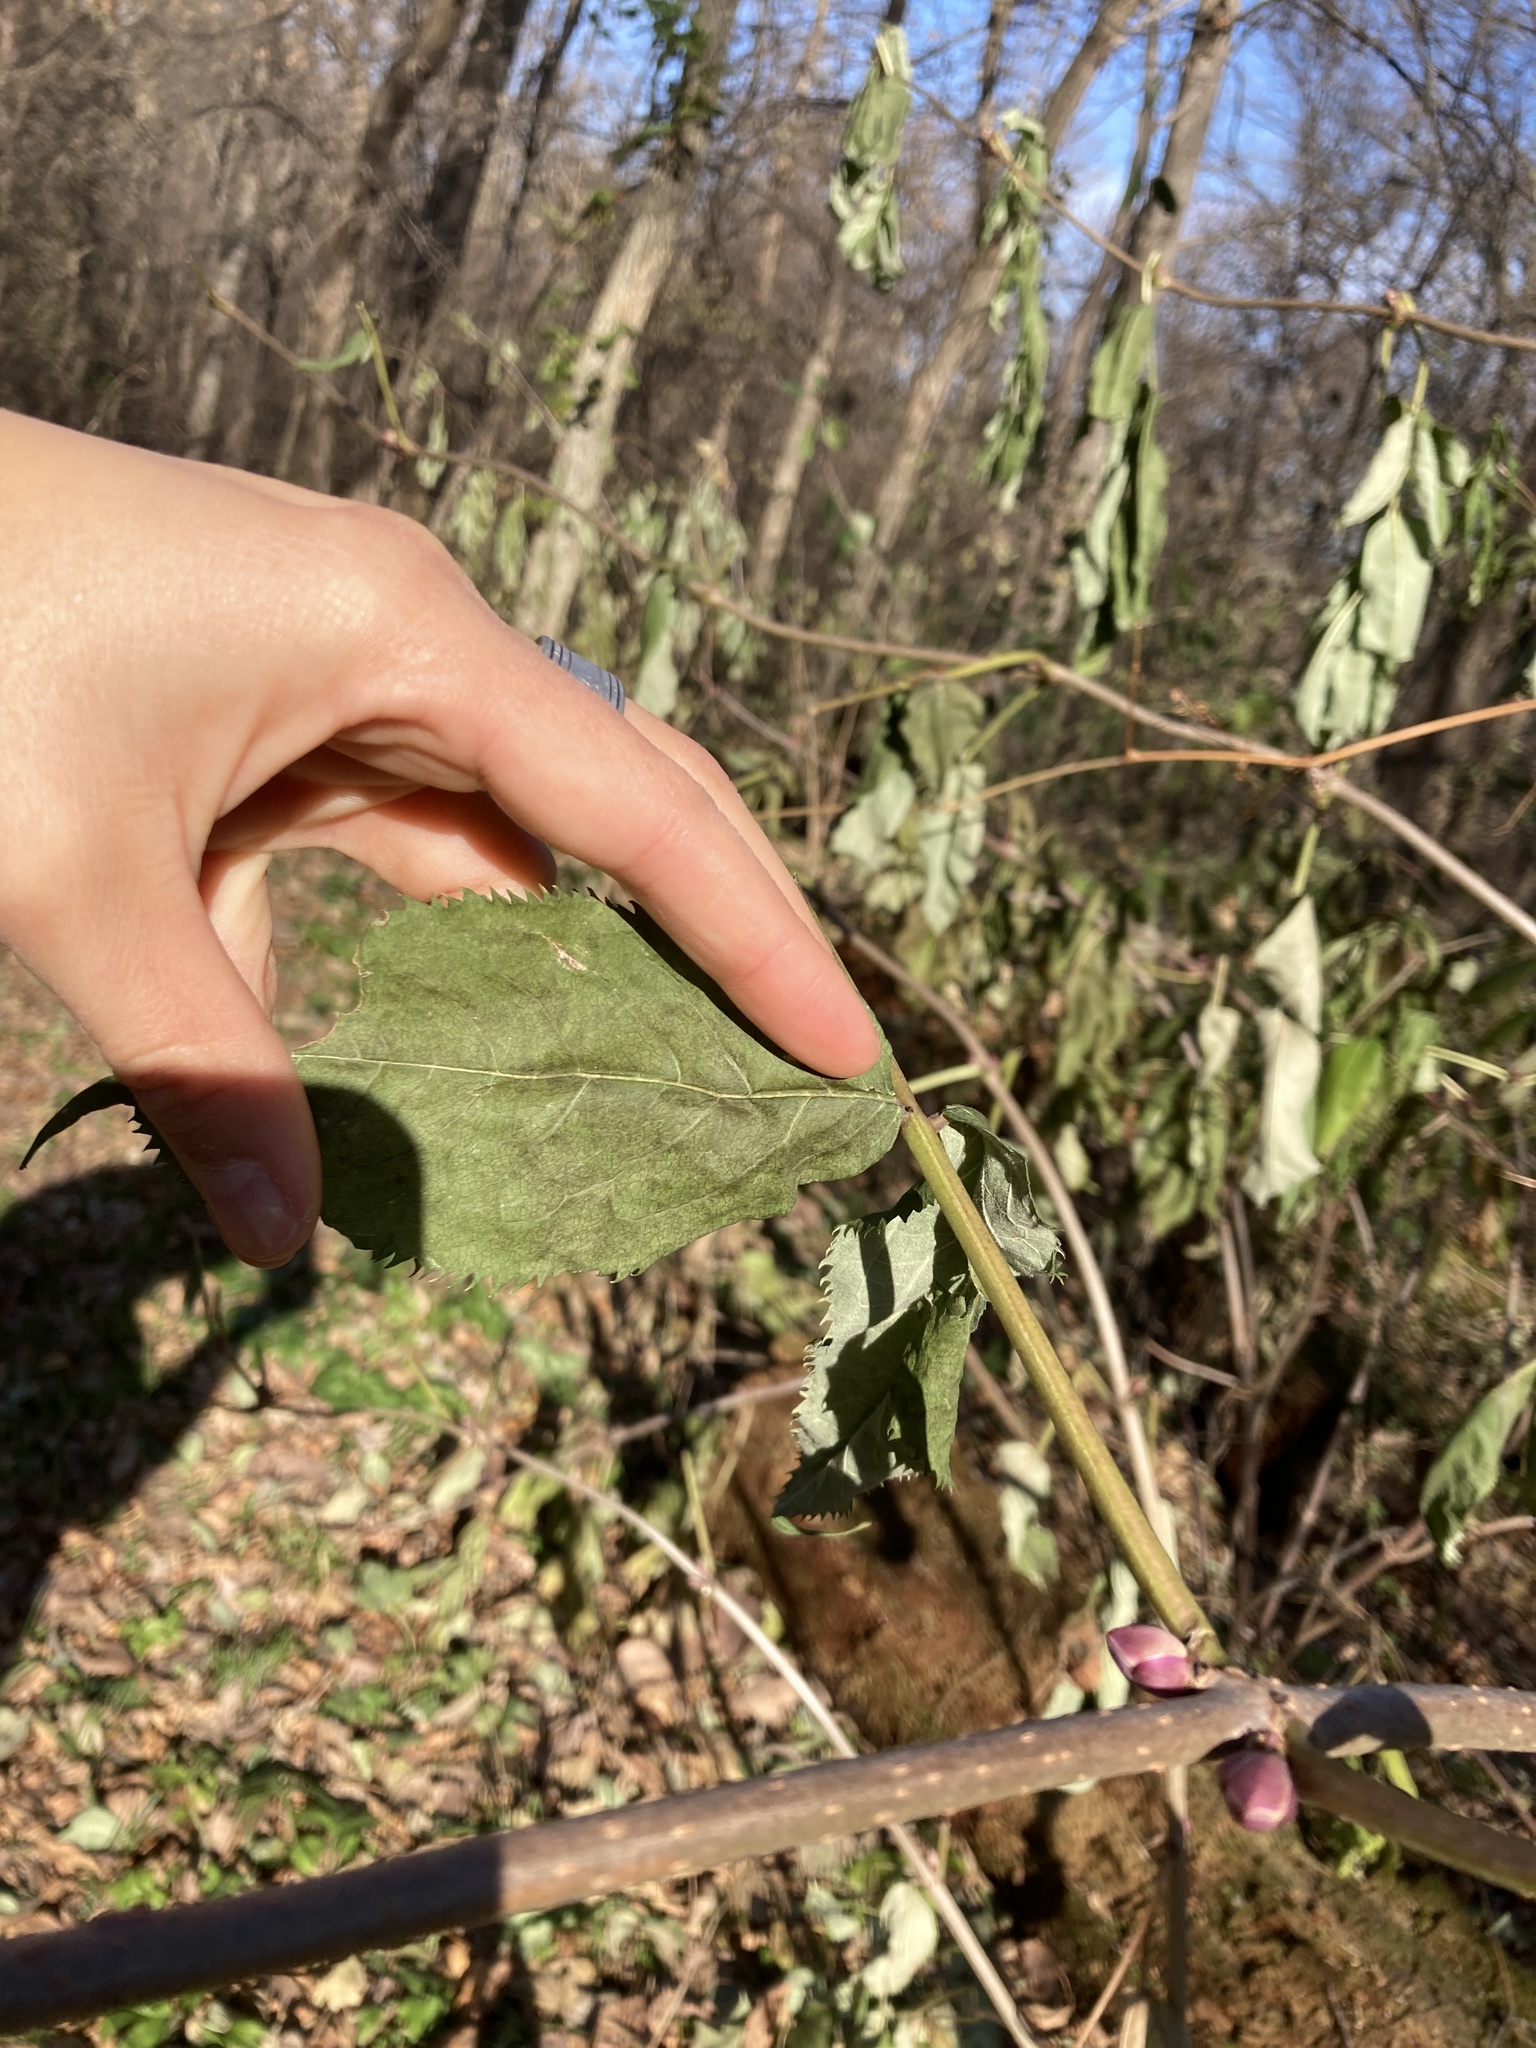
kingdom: Plantae
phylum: Tracheophyta
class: Magnoliopsida
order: Dipsacales
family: Viburnaceae
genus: Sambucus
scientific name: Sambucus racemosa
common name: Red-berried elder
